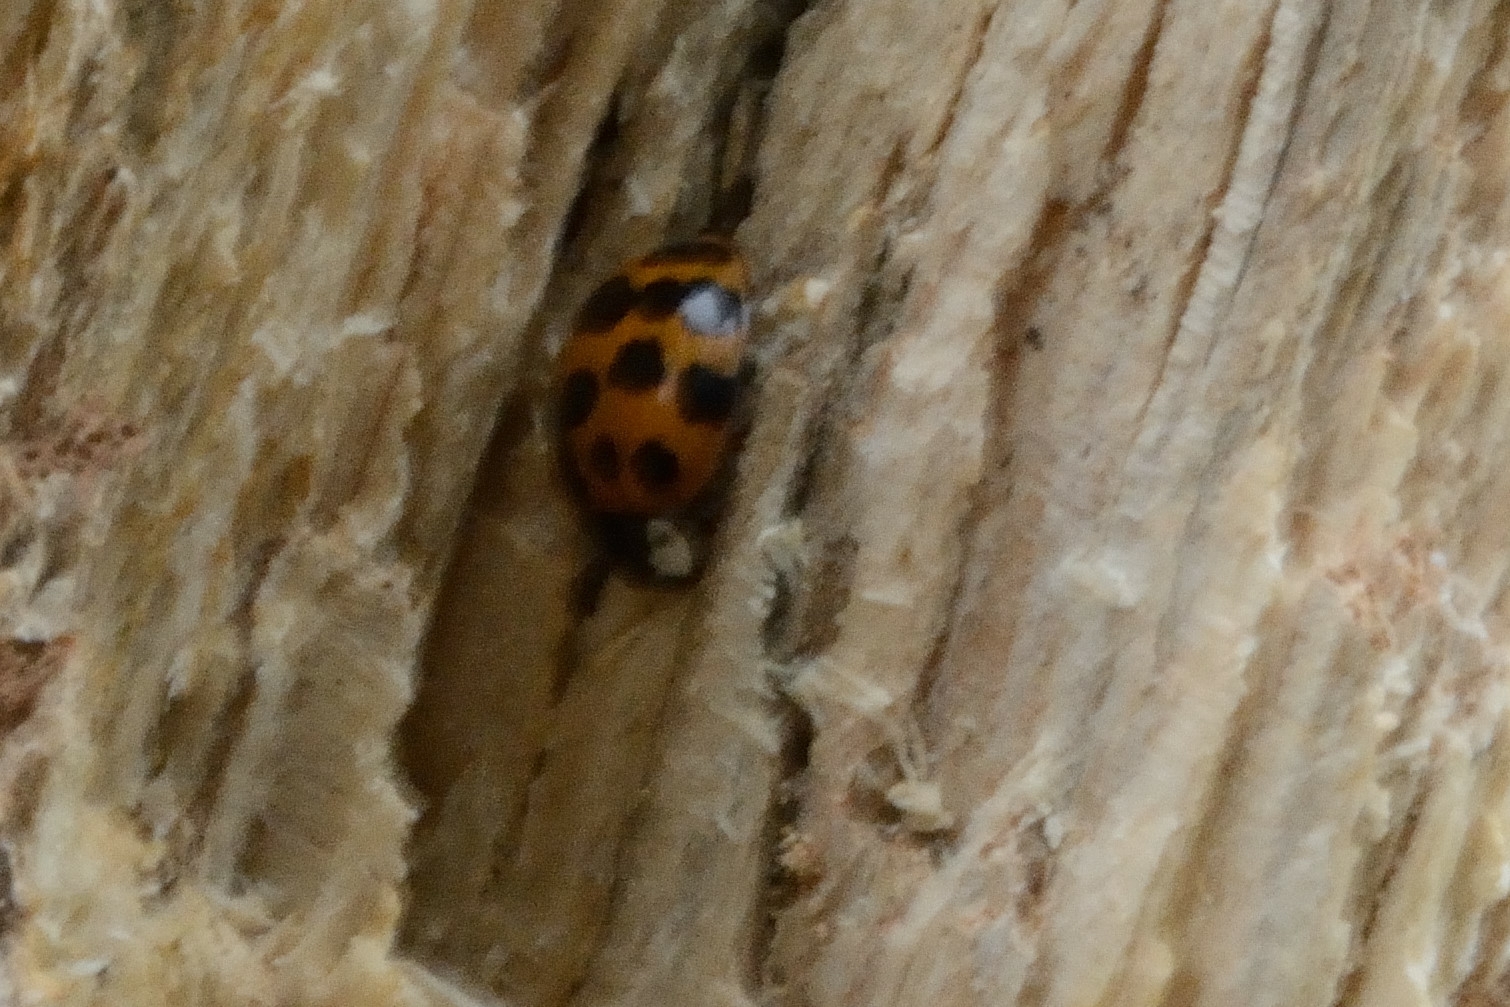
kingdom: Animalia
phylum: Arthropoda
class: Insecta
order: Coleoptera
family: Coccinellidae
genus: Harmonia
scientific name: Harmonia axyridis
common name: Harlequin ladybird
